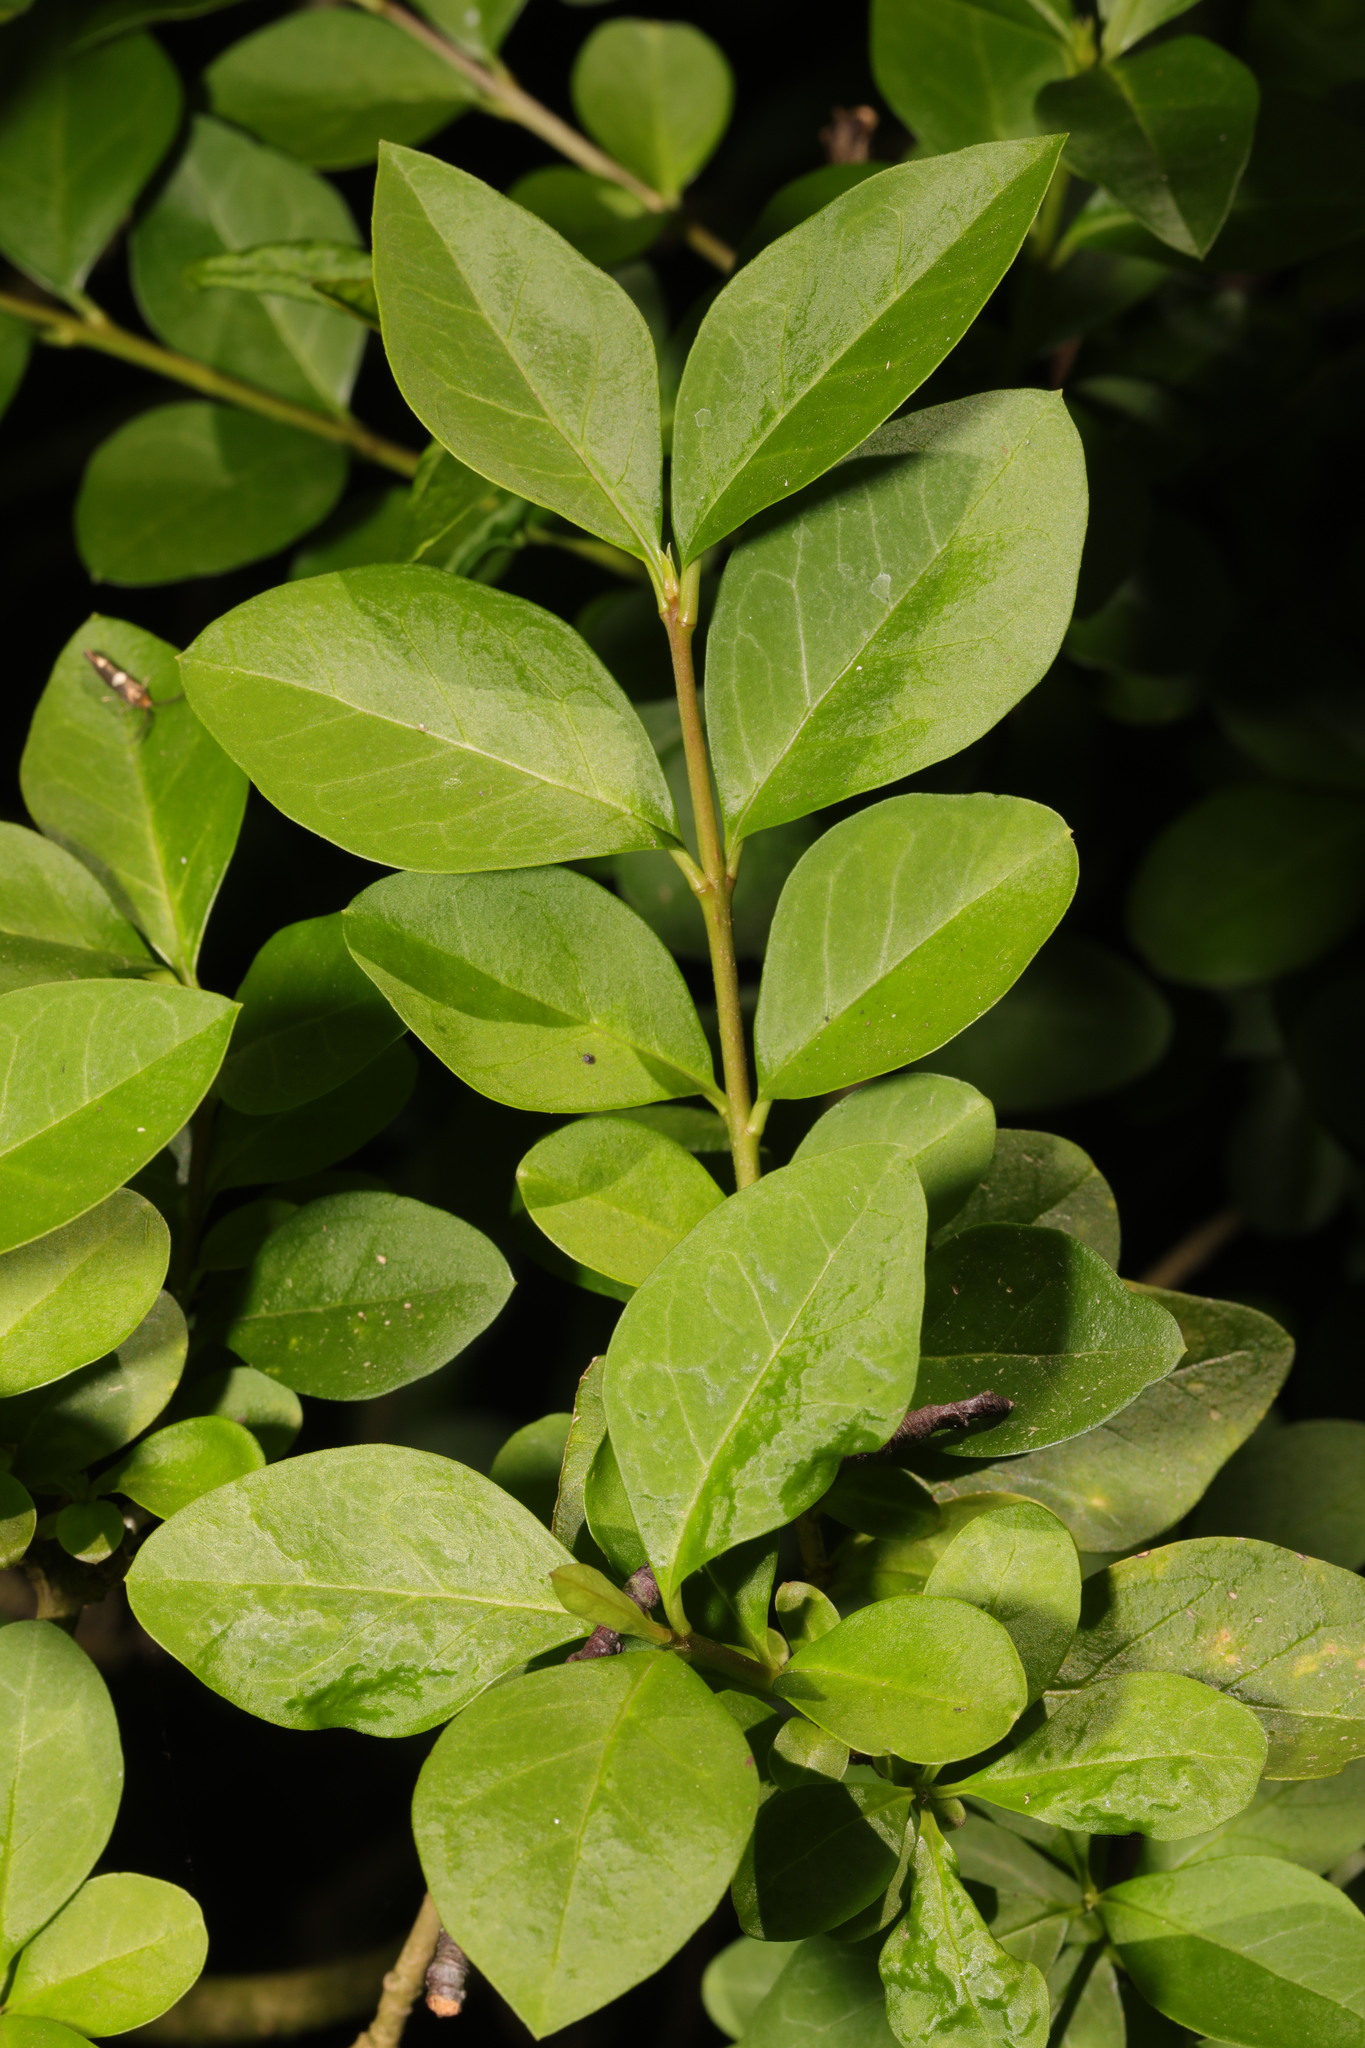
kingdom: Plantae
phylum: Tracheophyta
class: Magnoliopsida
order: Lamiales
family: Oleaceae
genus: Ligustrum
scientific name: Ligustrum ovalifolium
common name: California privet
